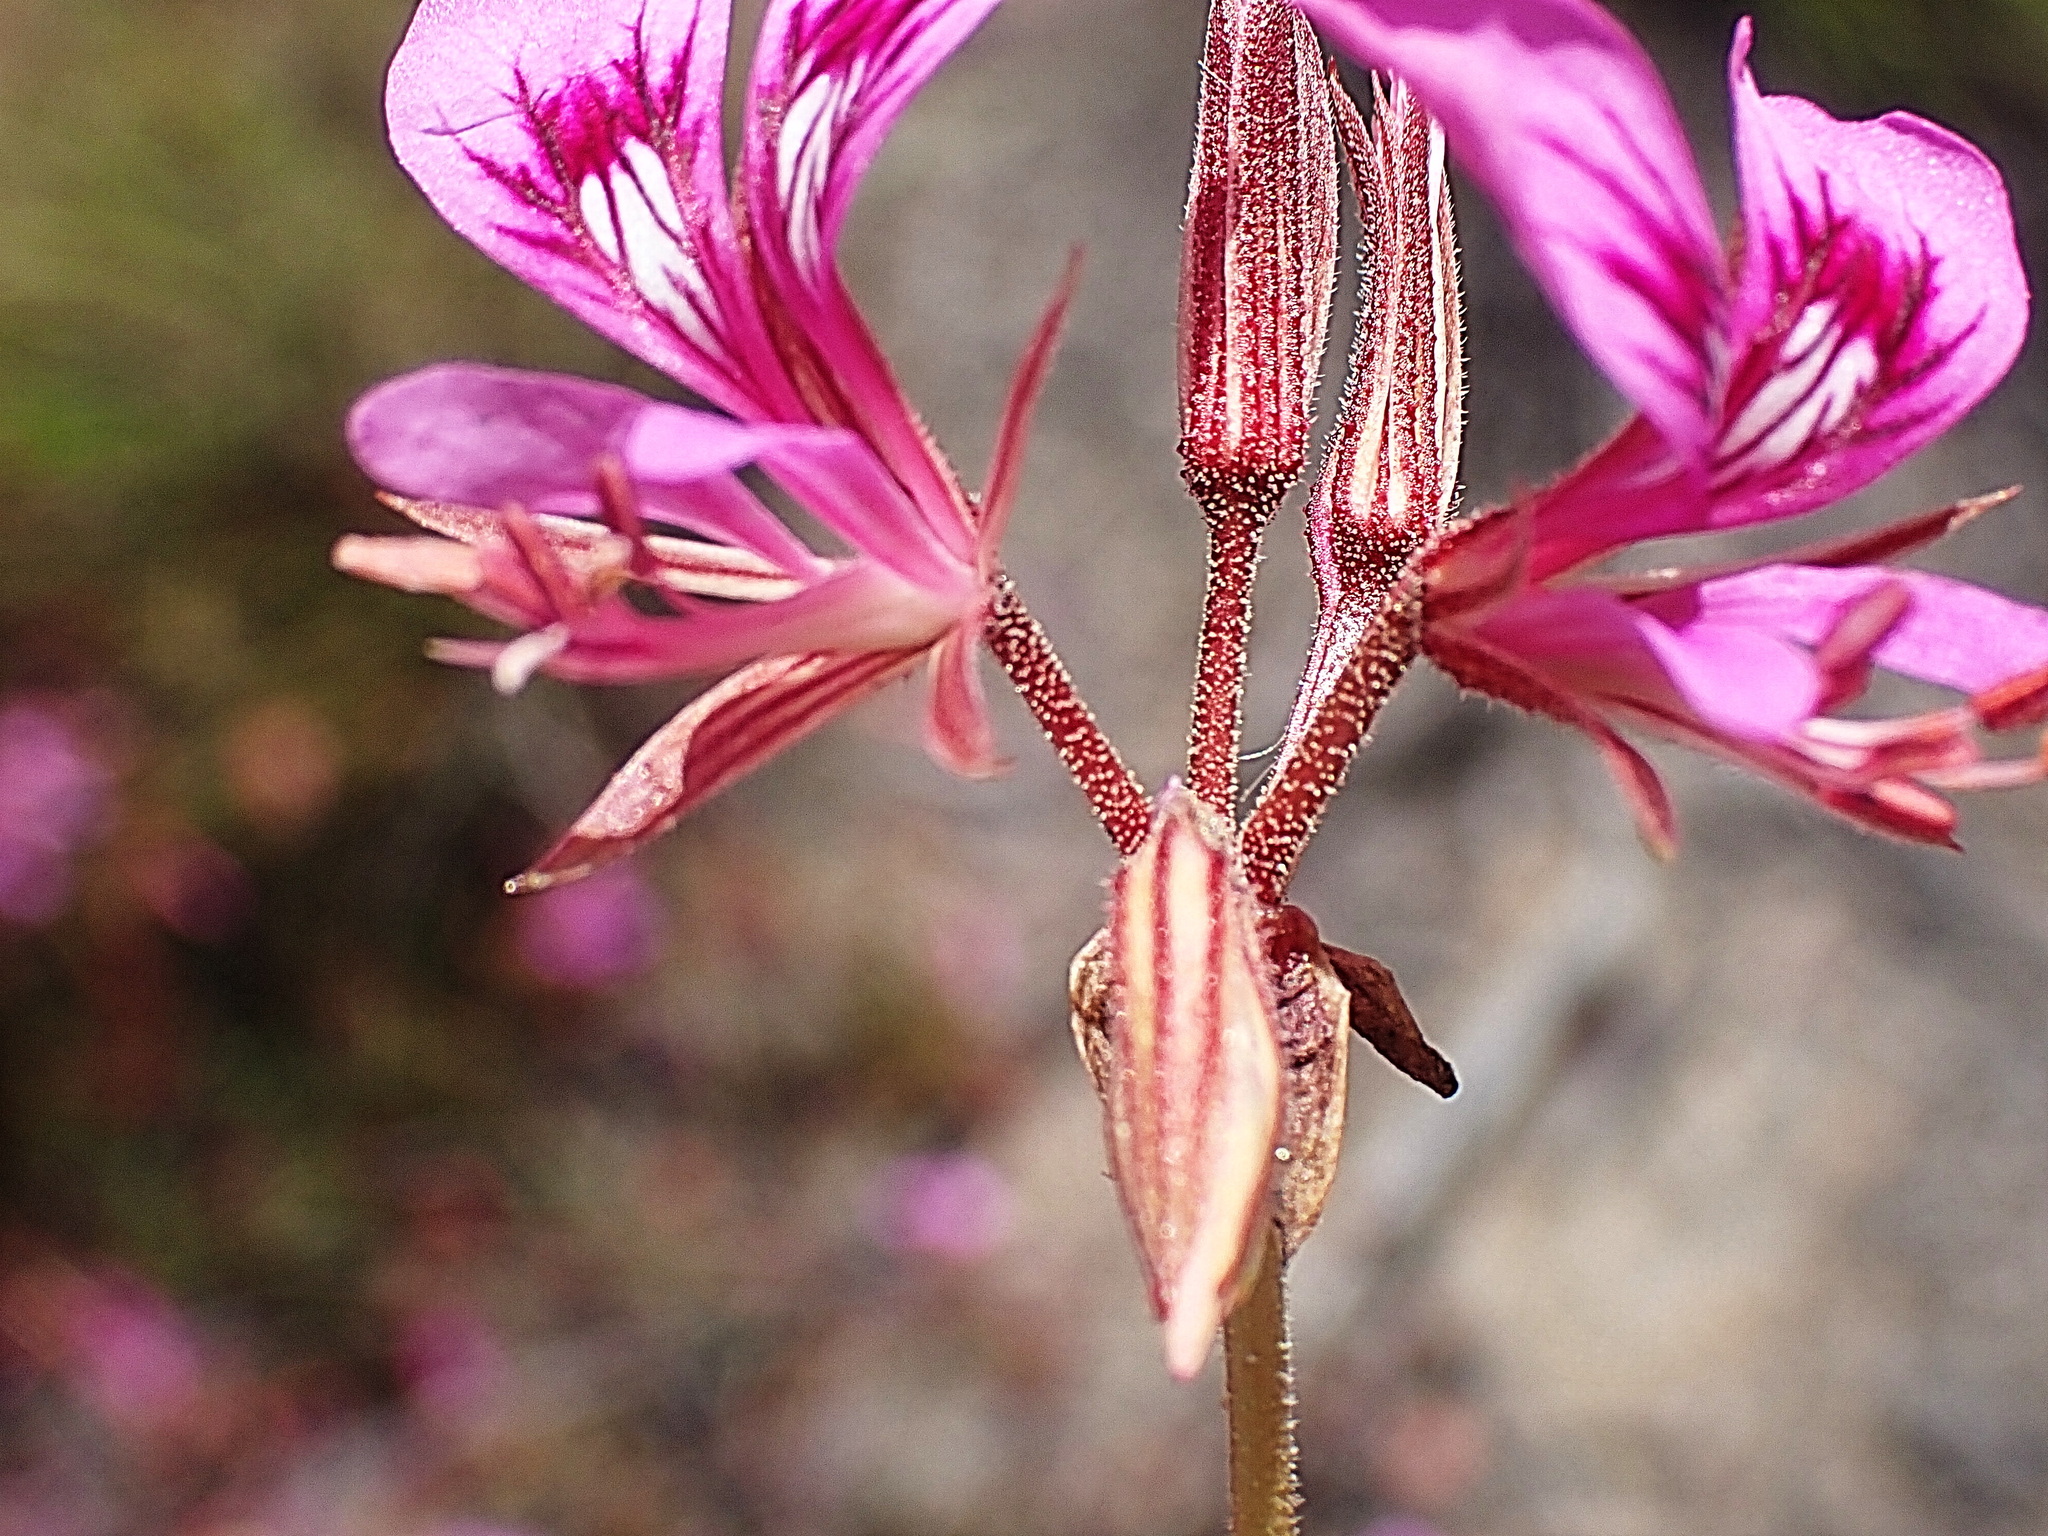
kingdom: Plantae
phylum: Tracheophyta
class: Magnoliopsida
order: Geraniales
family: Geraniaceae
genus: Pelargonium
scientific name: Pelargonium multicaule
